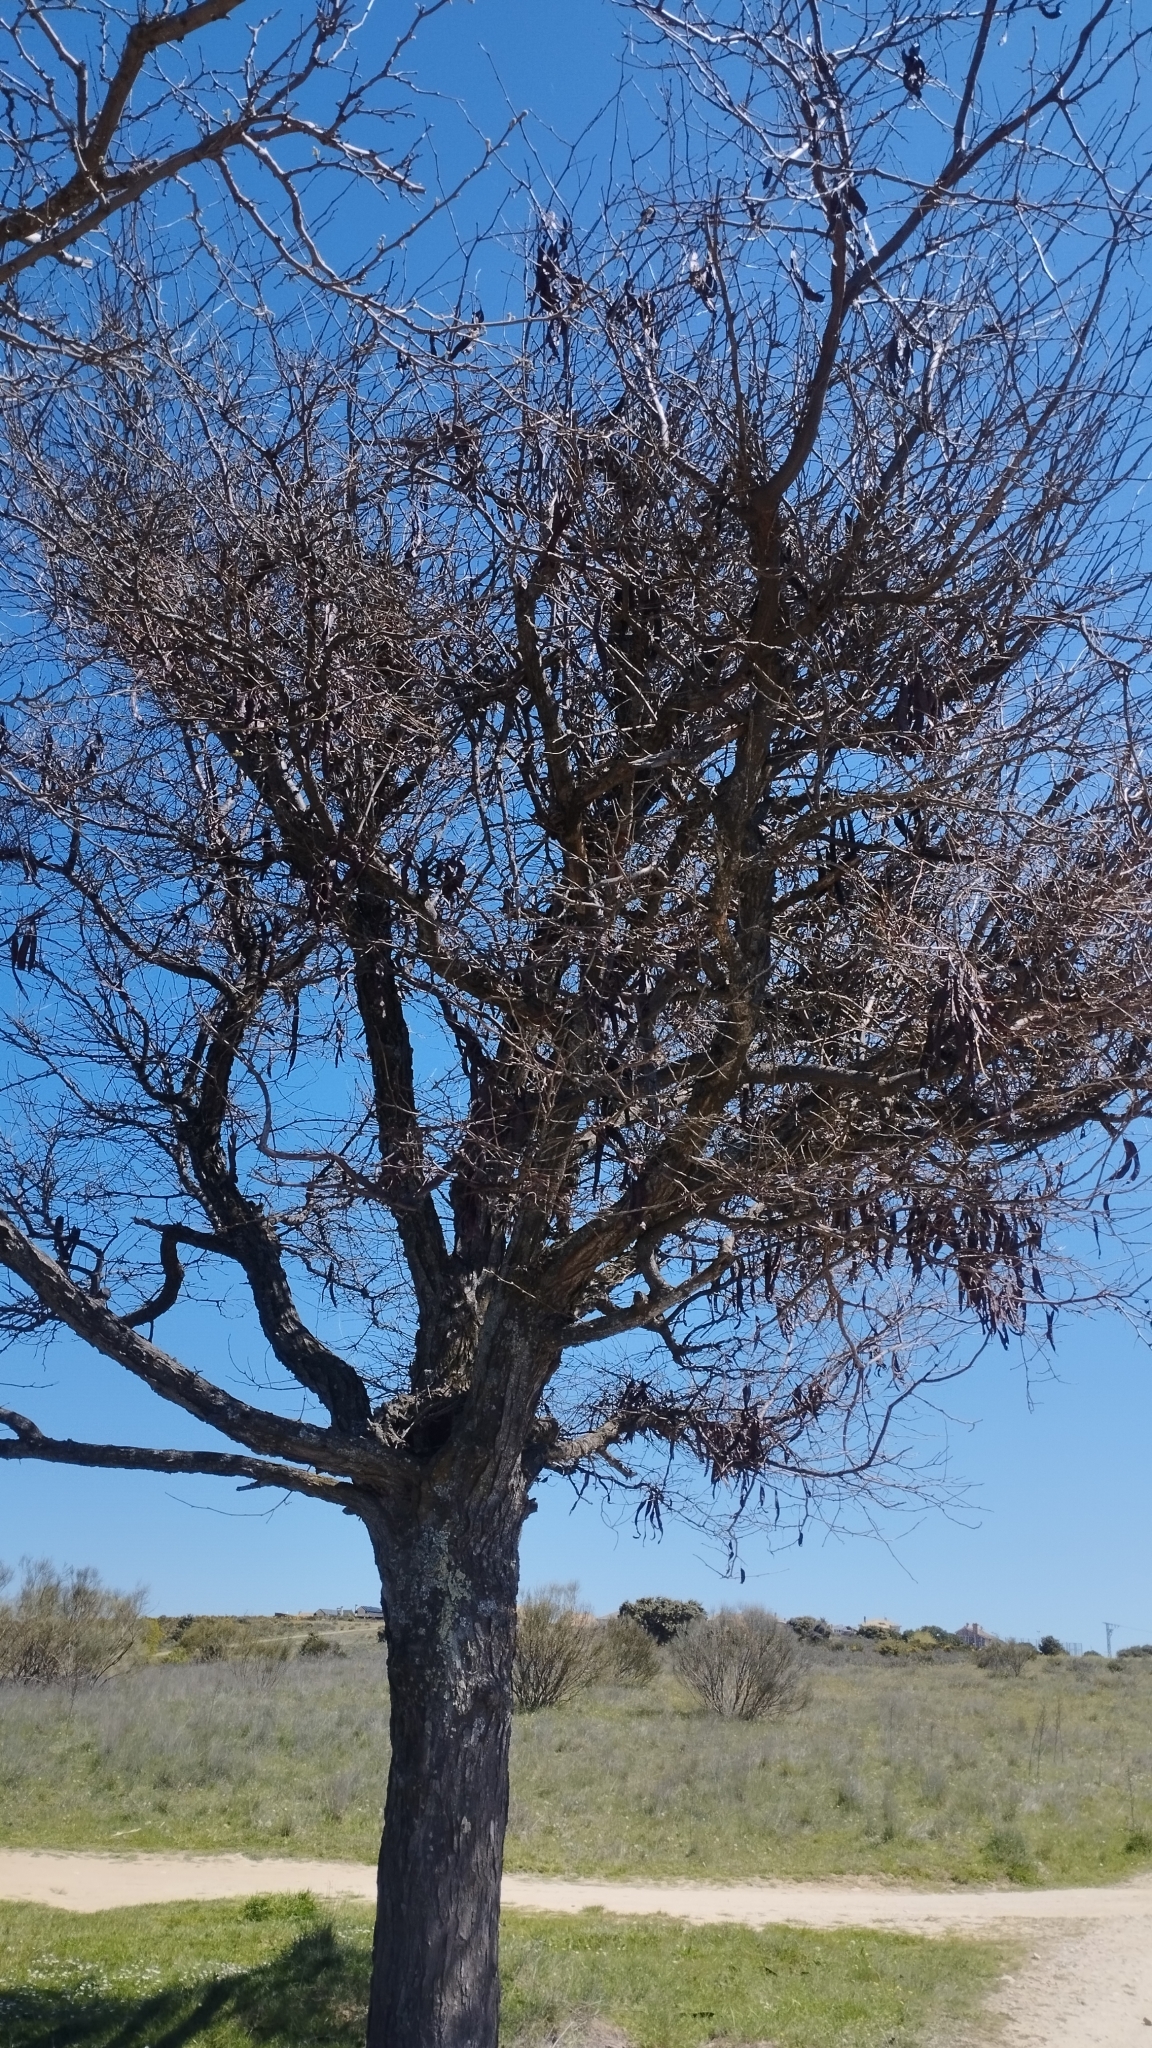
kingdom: Plantae
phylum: Tracheophyta
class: Magnoliopsida
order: Fabales
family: Fabaceae
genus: Gleditsia
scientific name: Gleditsia triacanthos
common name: Common honeylocust
